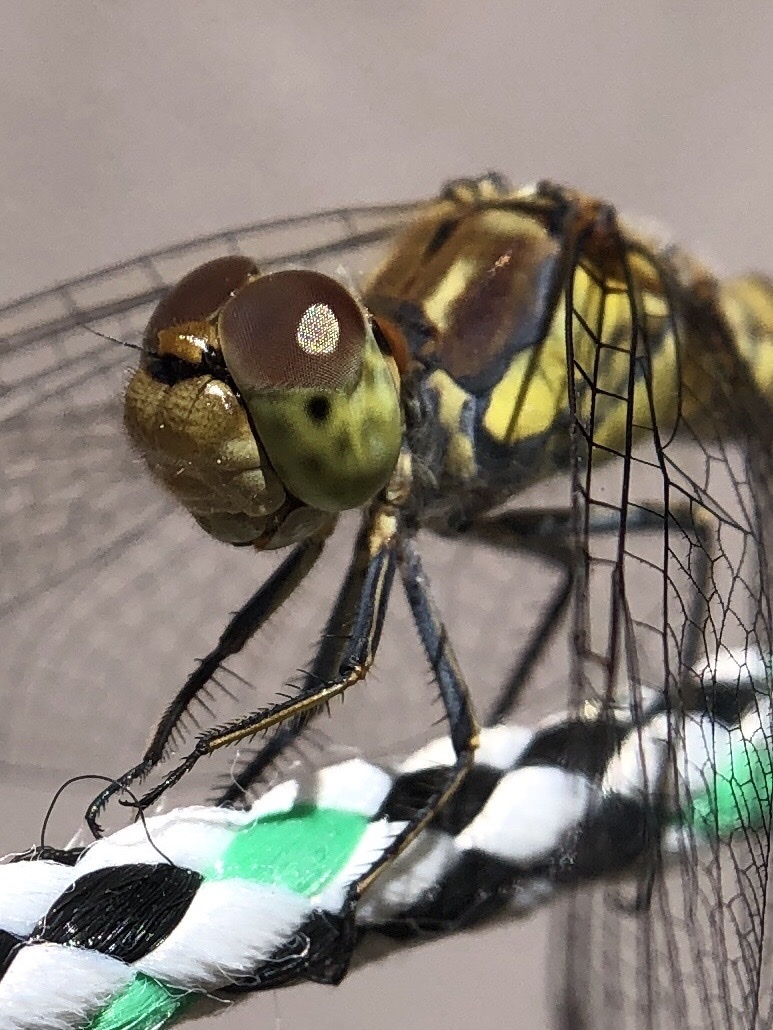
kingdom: Animalia
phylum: Arthropoda
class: Insecta
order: Odonata
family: Libellulidae
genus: Sympetrum
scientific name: Sympetrum striolatum
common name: Common darter
